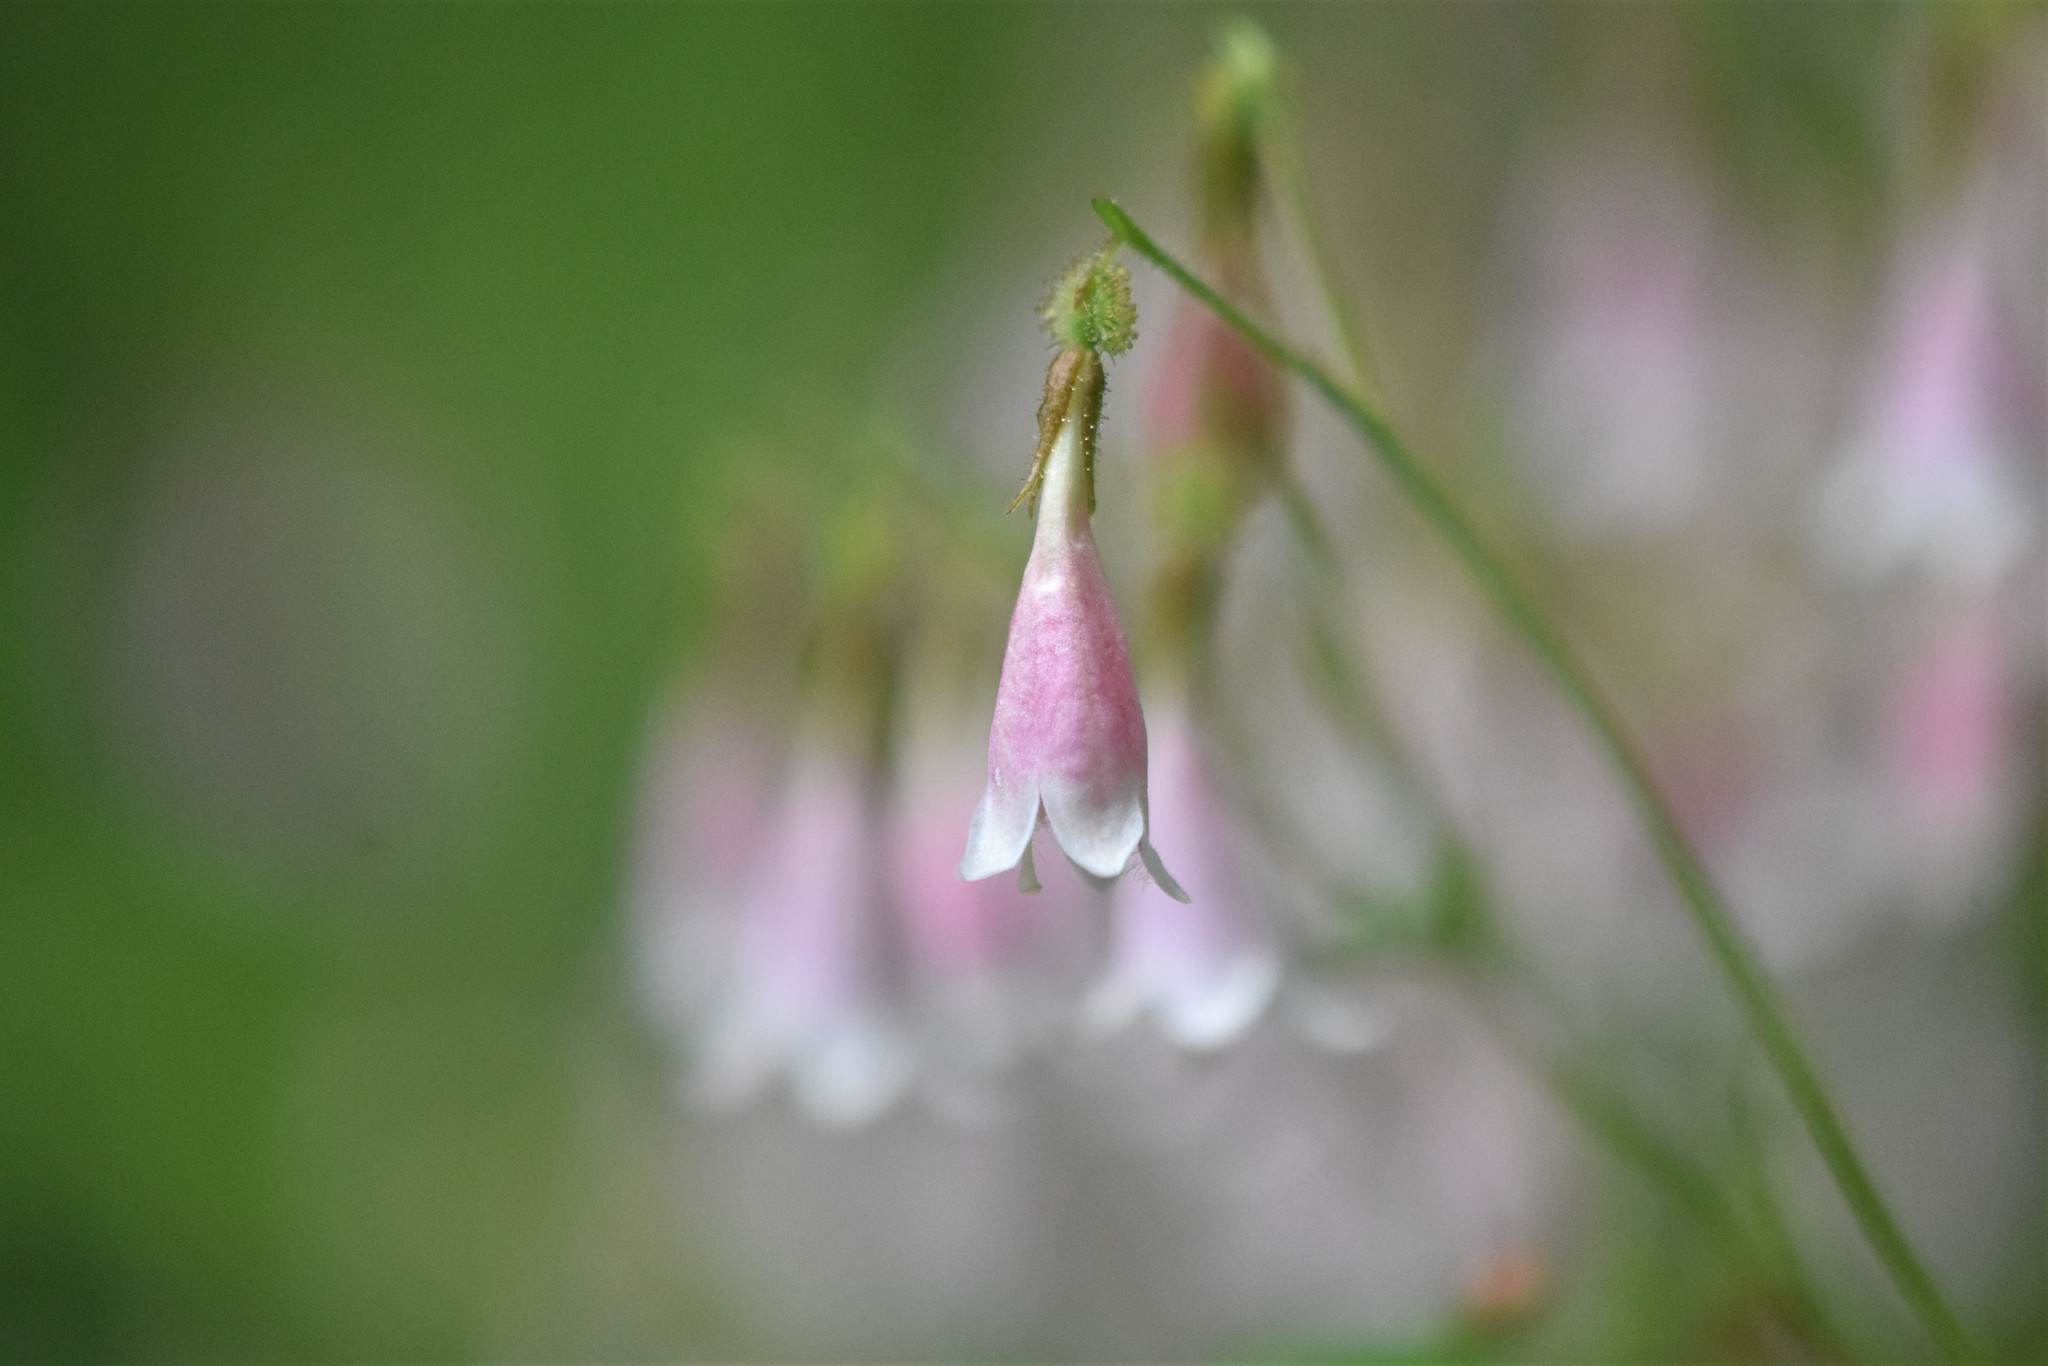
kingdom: Plantae
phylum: Tracheophyta
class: Magnoliopsida
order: Dipsacales
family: Caprifoliaceae
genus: Linnaea
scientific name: Linnaea borealis
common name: Twinflower
